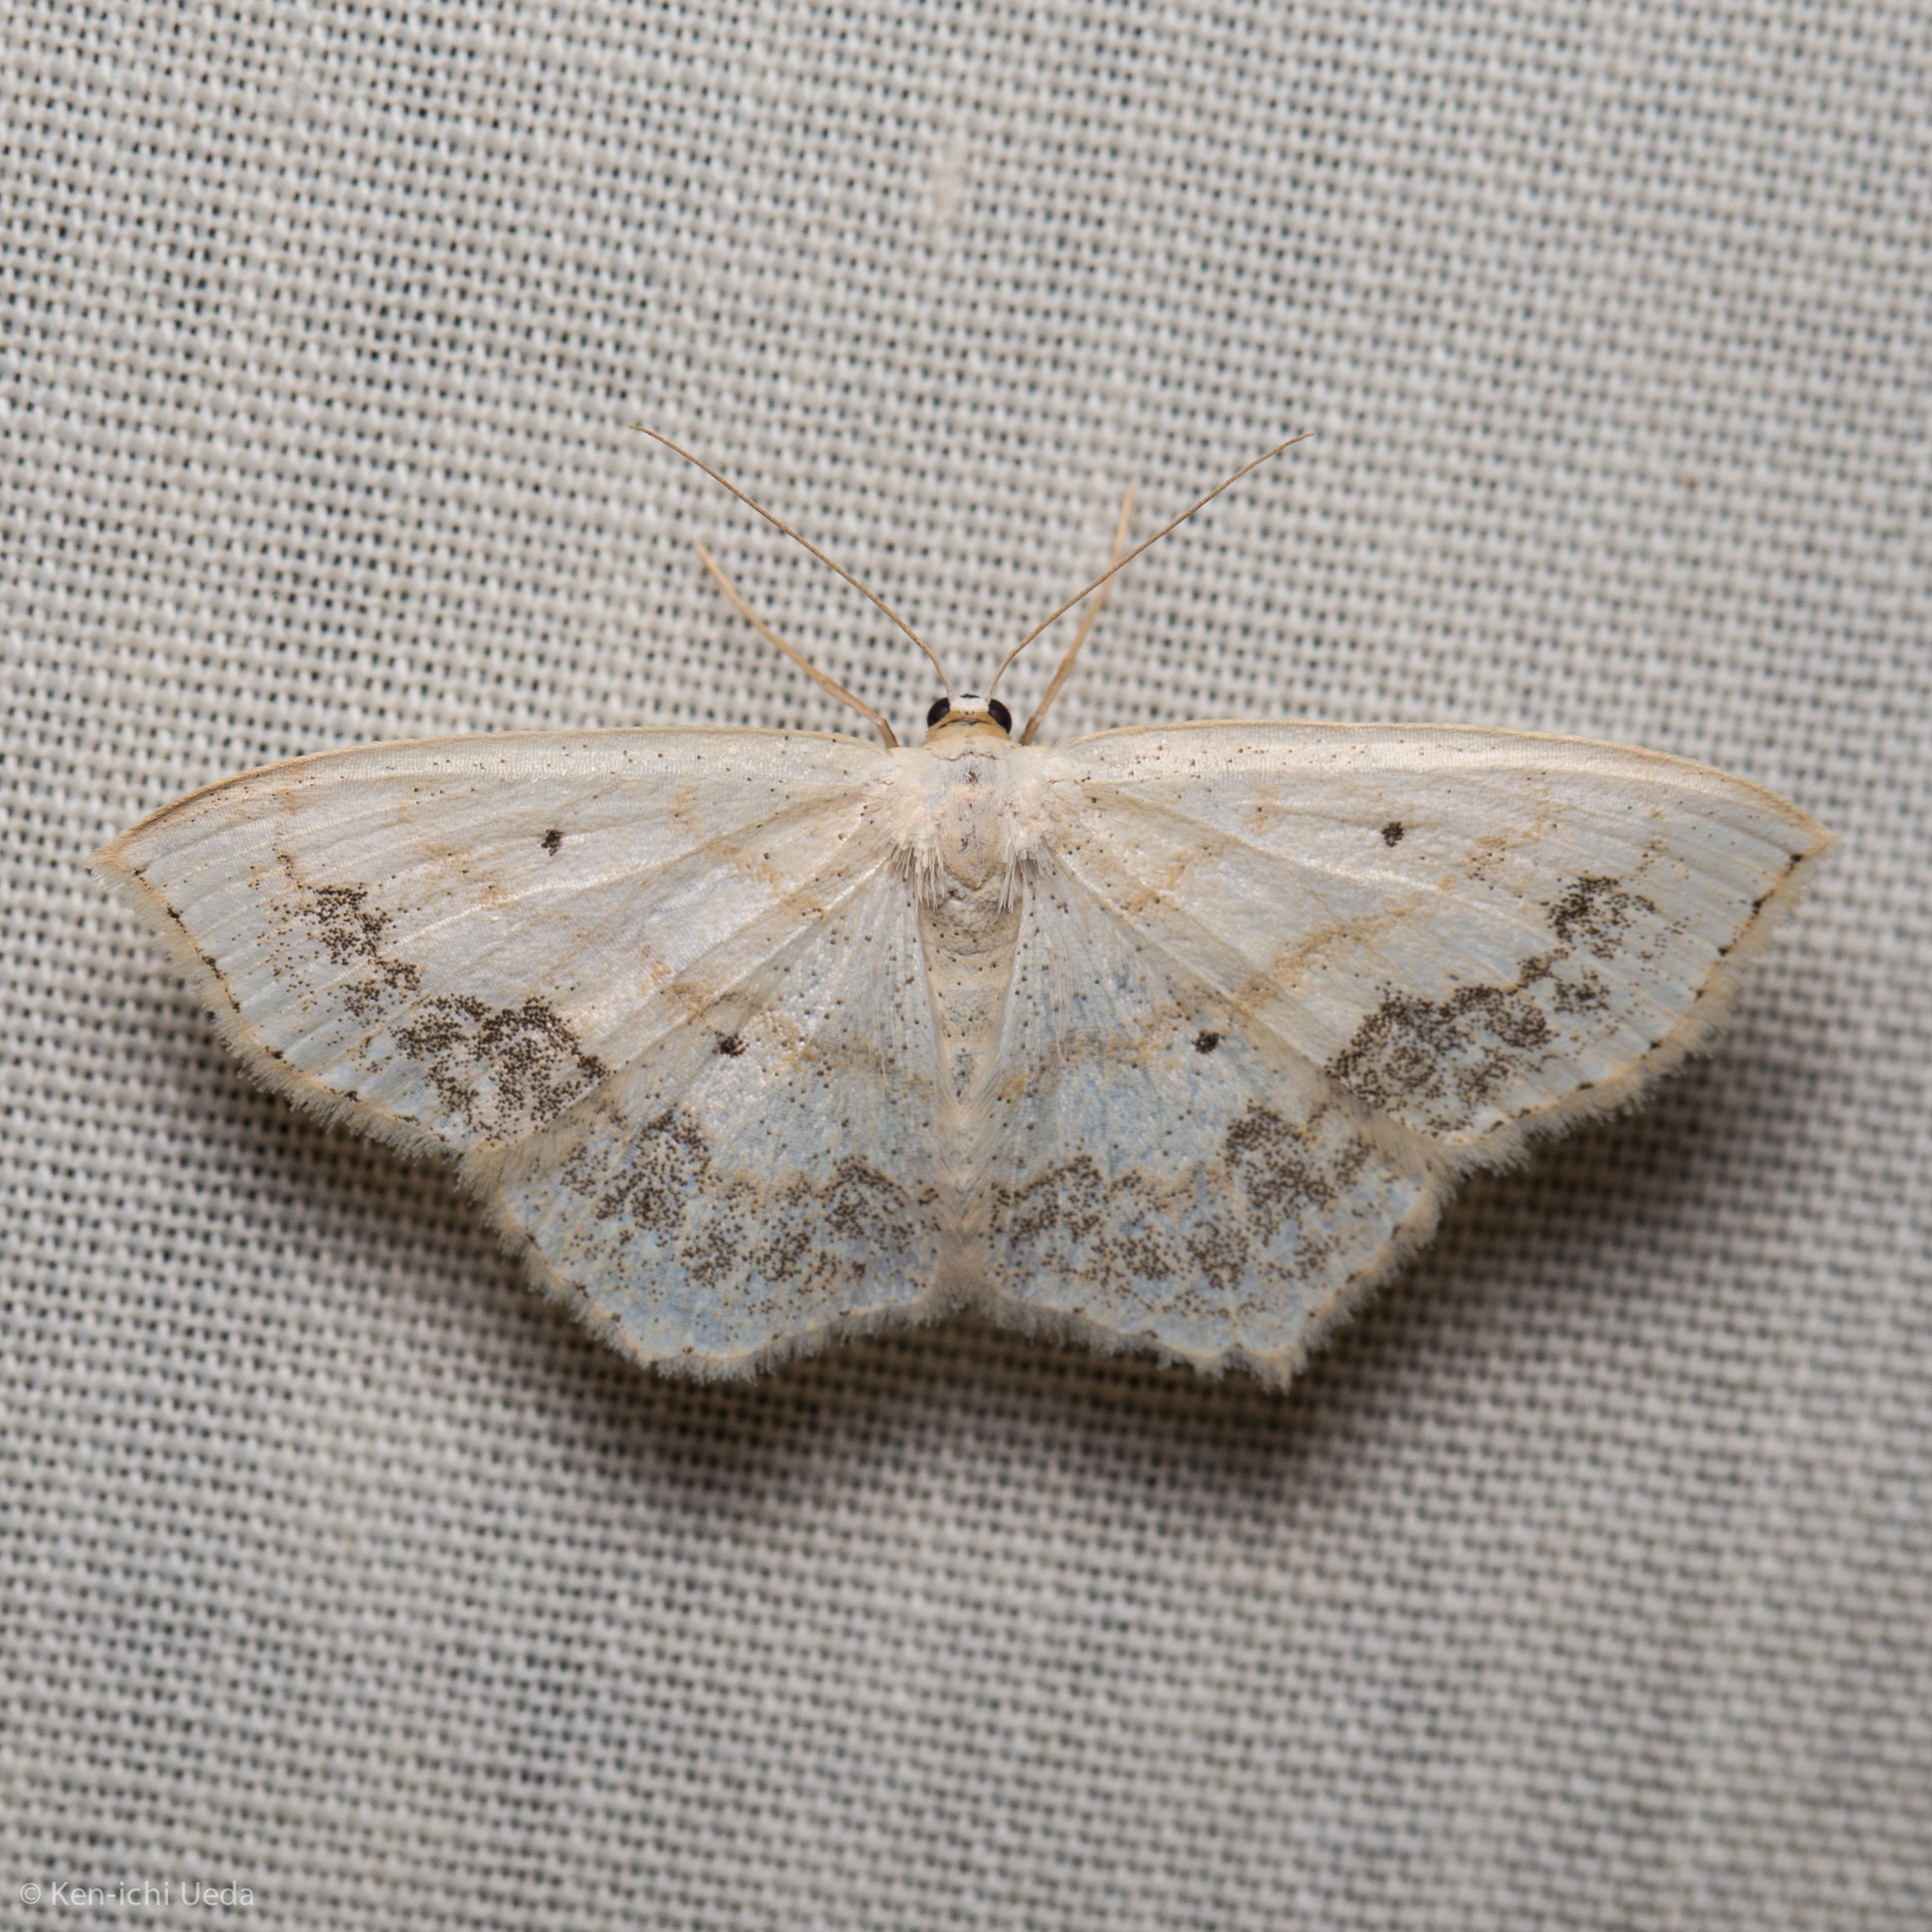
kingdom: Animalia
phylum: Arthropoda
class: Insecta
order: Lepidoptera
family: Geometridae
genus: Scopula
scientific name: Scopula limboundata
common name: Large lace border
